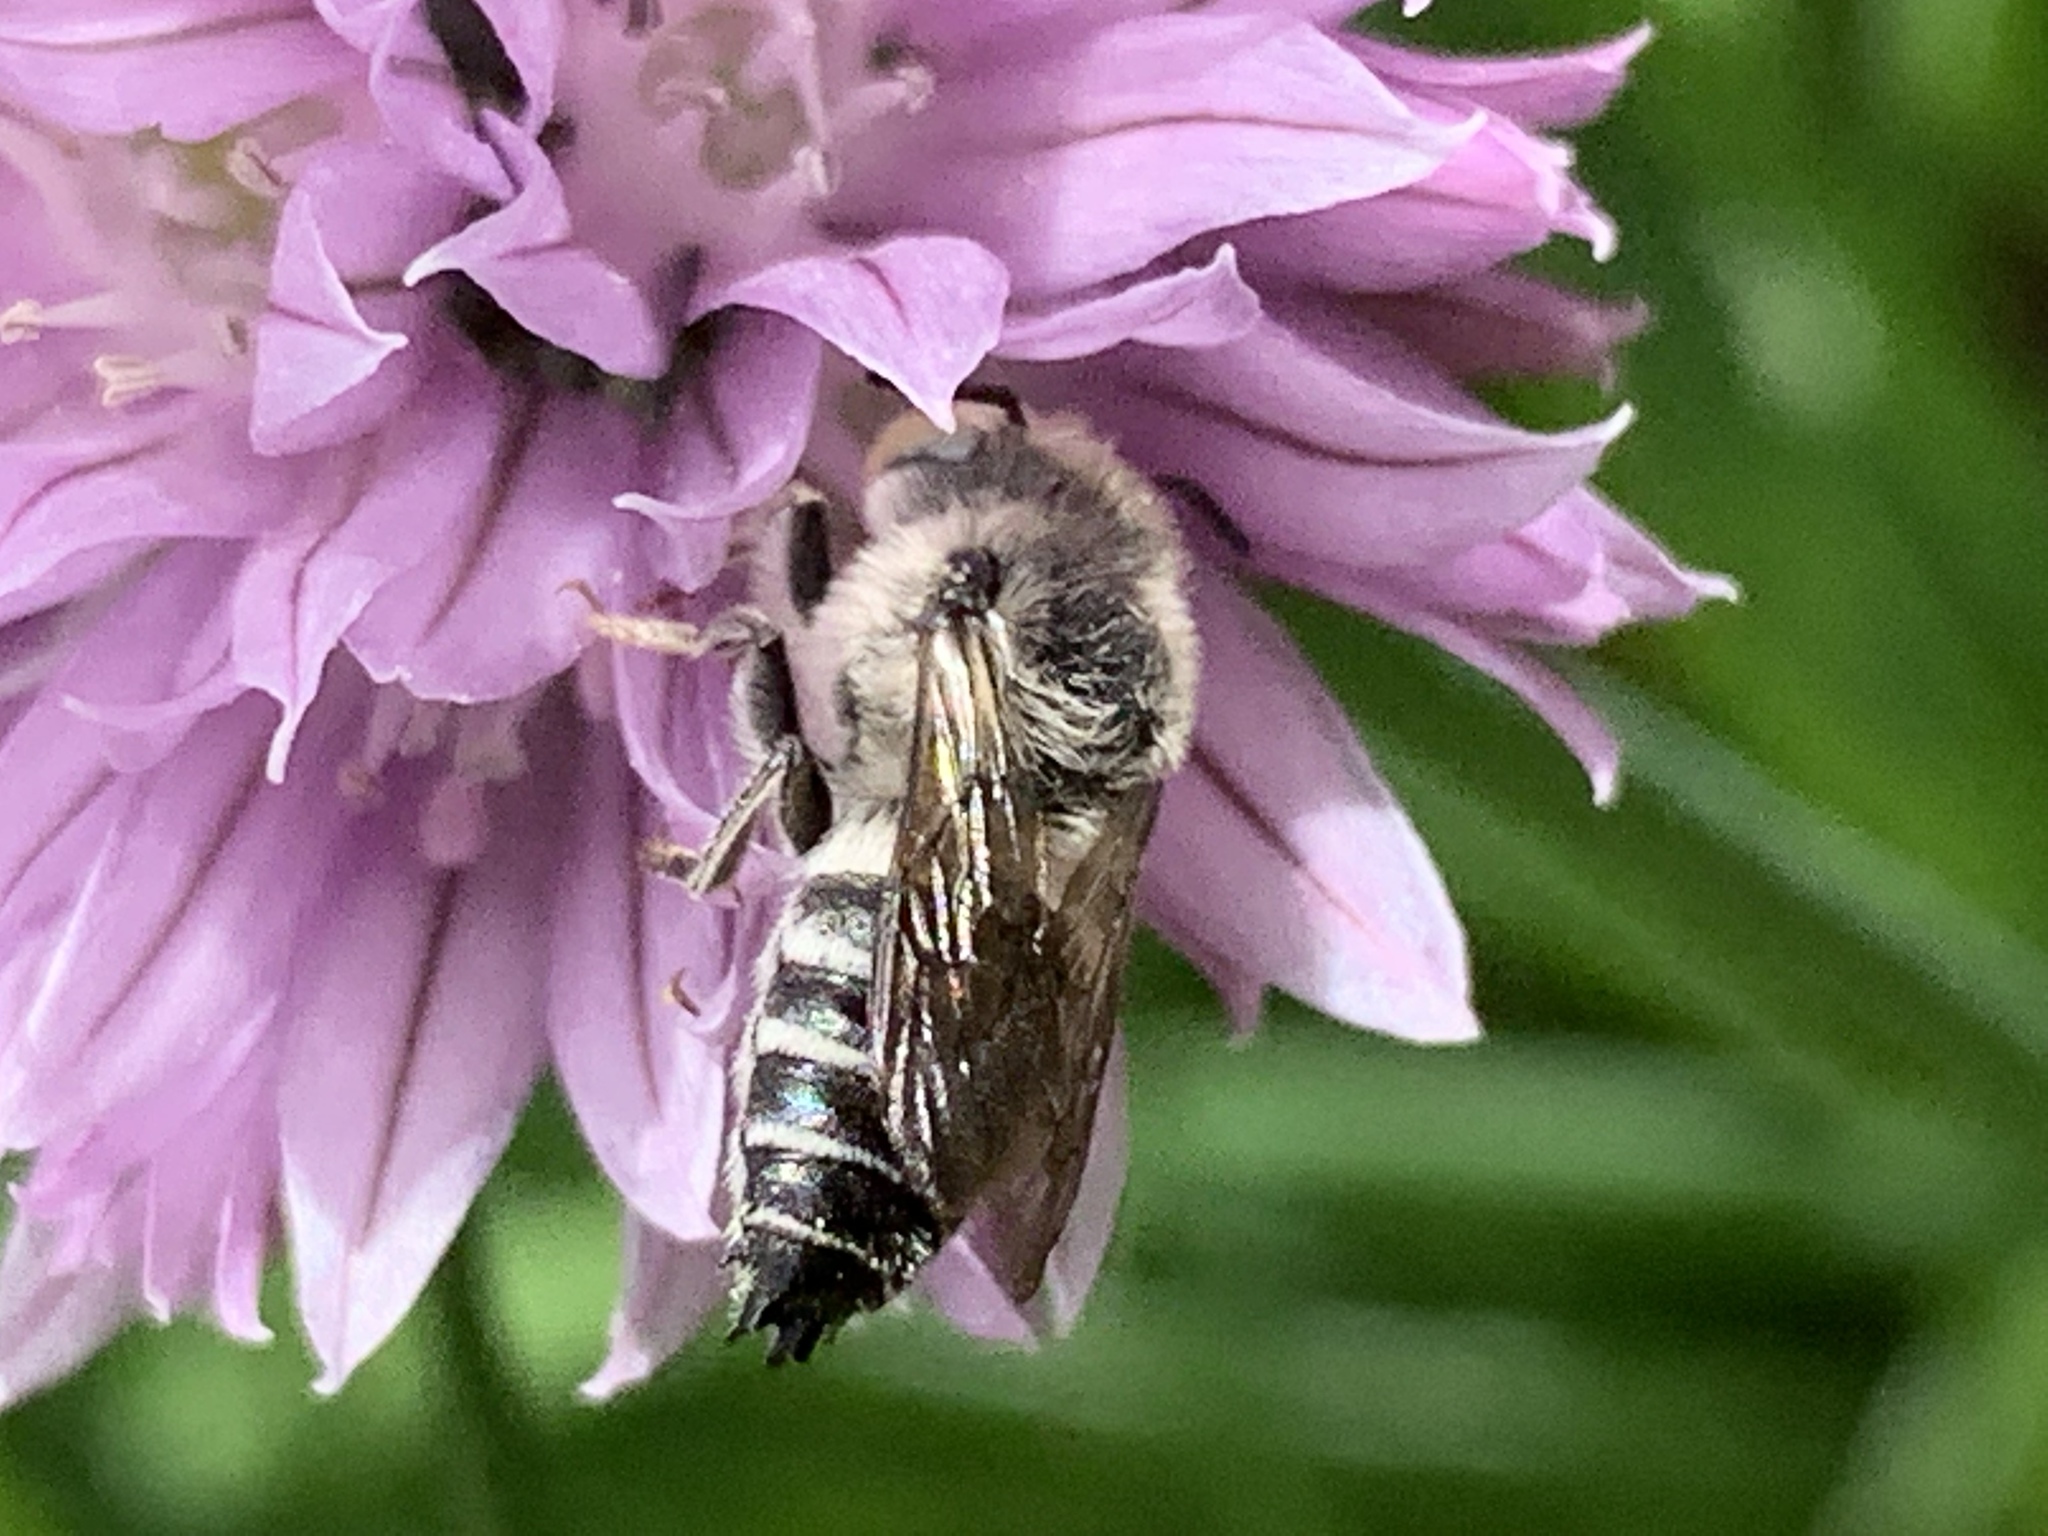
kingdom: Animalia
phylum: Arthropoda
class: Insecta
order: Hymenoptera
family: Megachilidae
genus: Coelioxys
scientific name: Coelioxys
